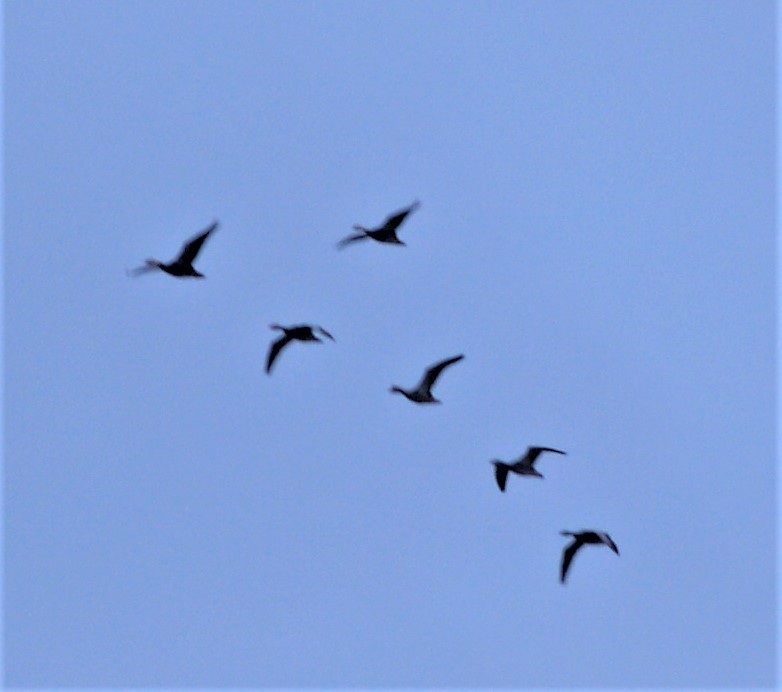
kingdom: Animalia
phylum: Chordata
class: Aves
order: Anseriformes
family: Anatidae
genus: Anser
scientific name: Anser albifrons
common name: Greater white-fronted goose
